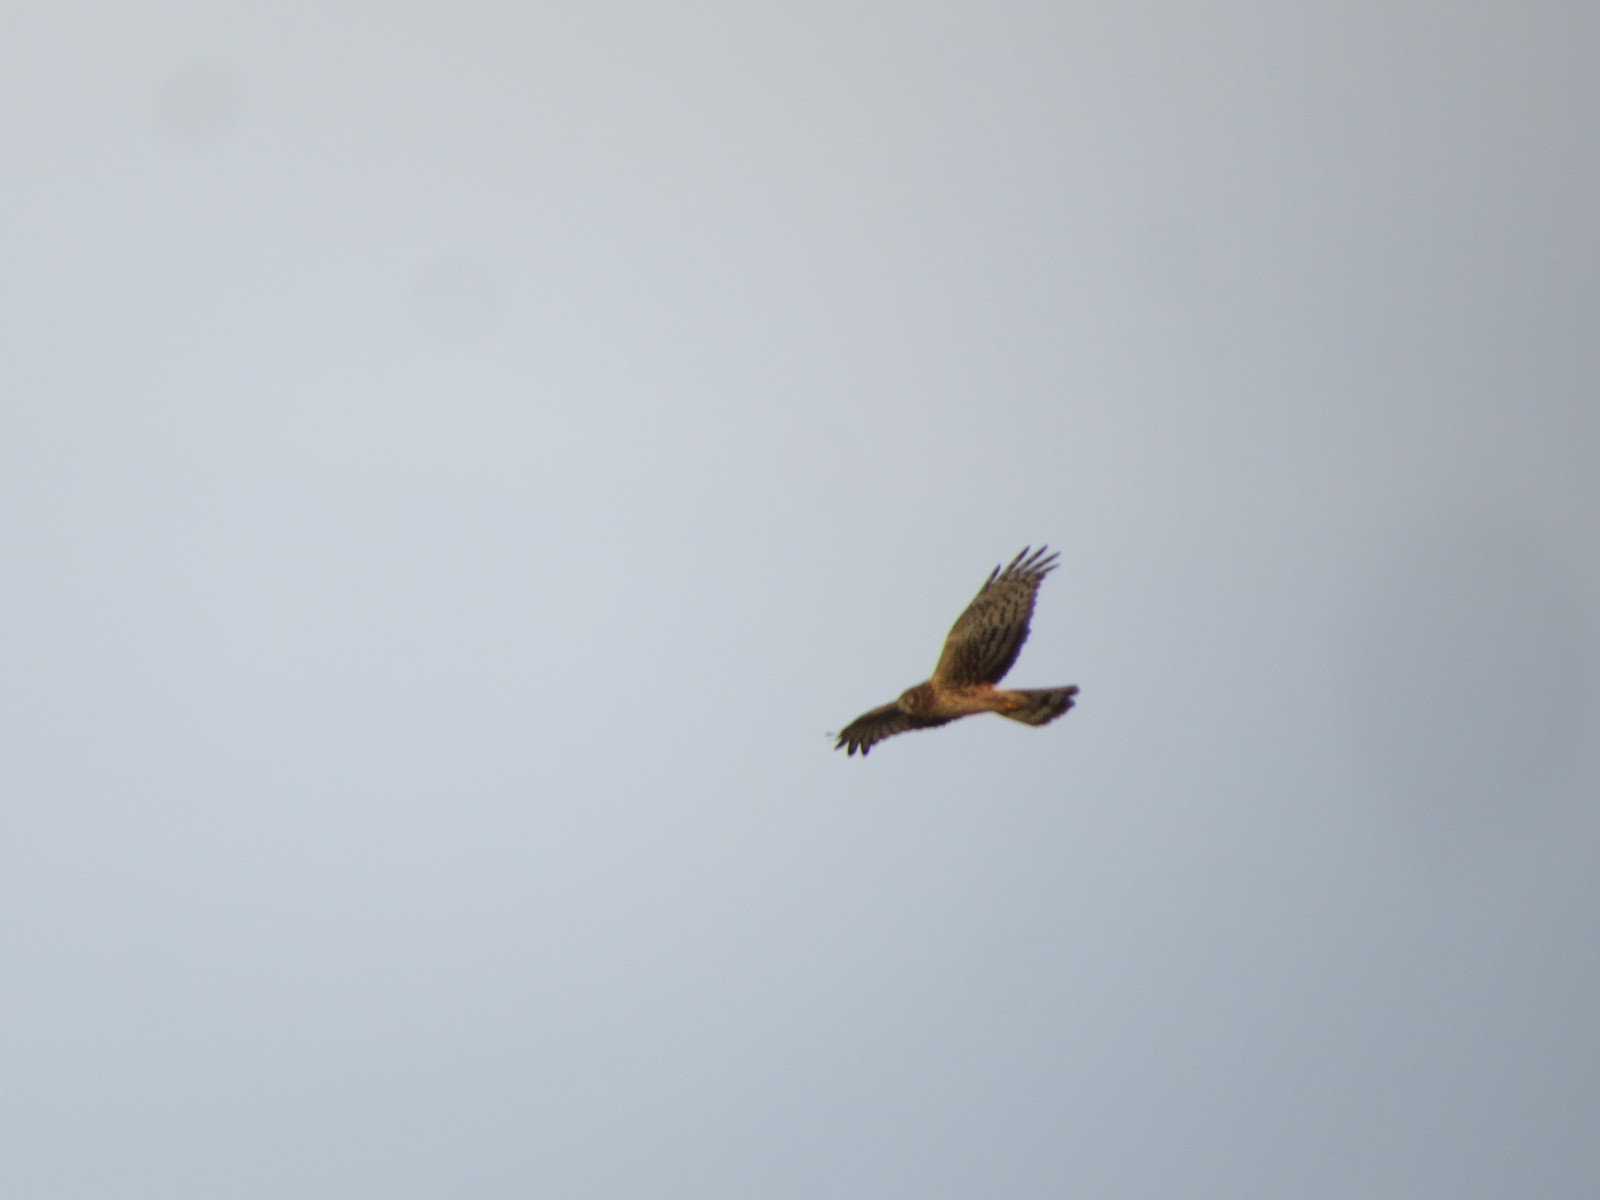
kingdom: Animalia
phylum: Chordata
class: Aves
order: Accipitriformes
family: Accipitridae
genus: Circus
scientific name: Circus cyaneus
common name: Hen harrier
